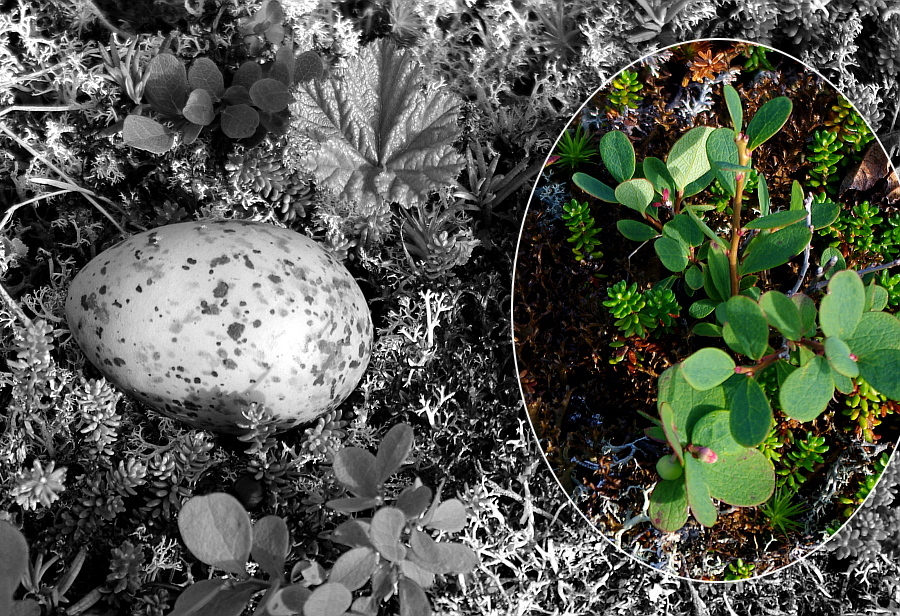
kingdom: Plantae
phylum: Tracheophyta
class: Magnoliopsida
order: Ericales
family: Ericaceae
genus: Vaccinium
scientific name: Vaccinium uliginosum
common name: Bog bilberry
